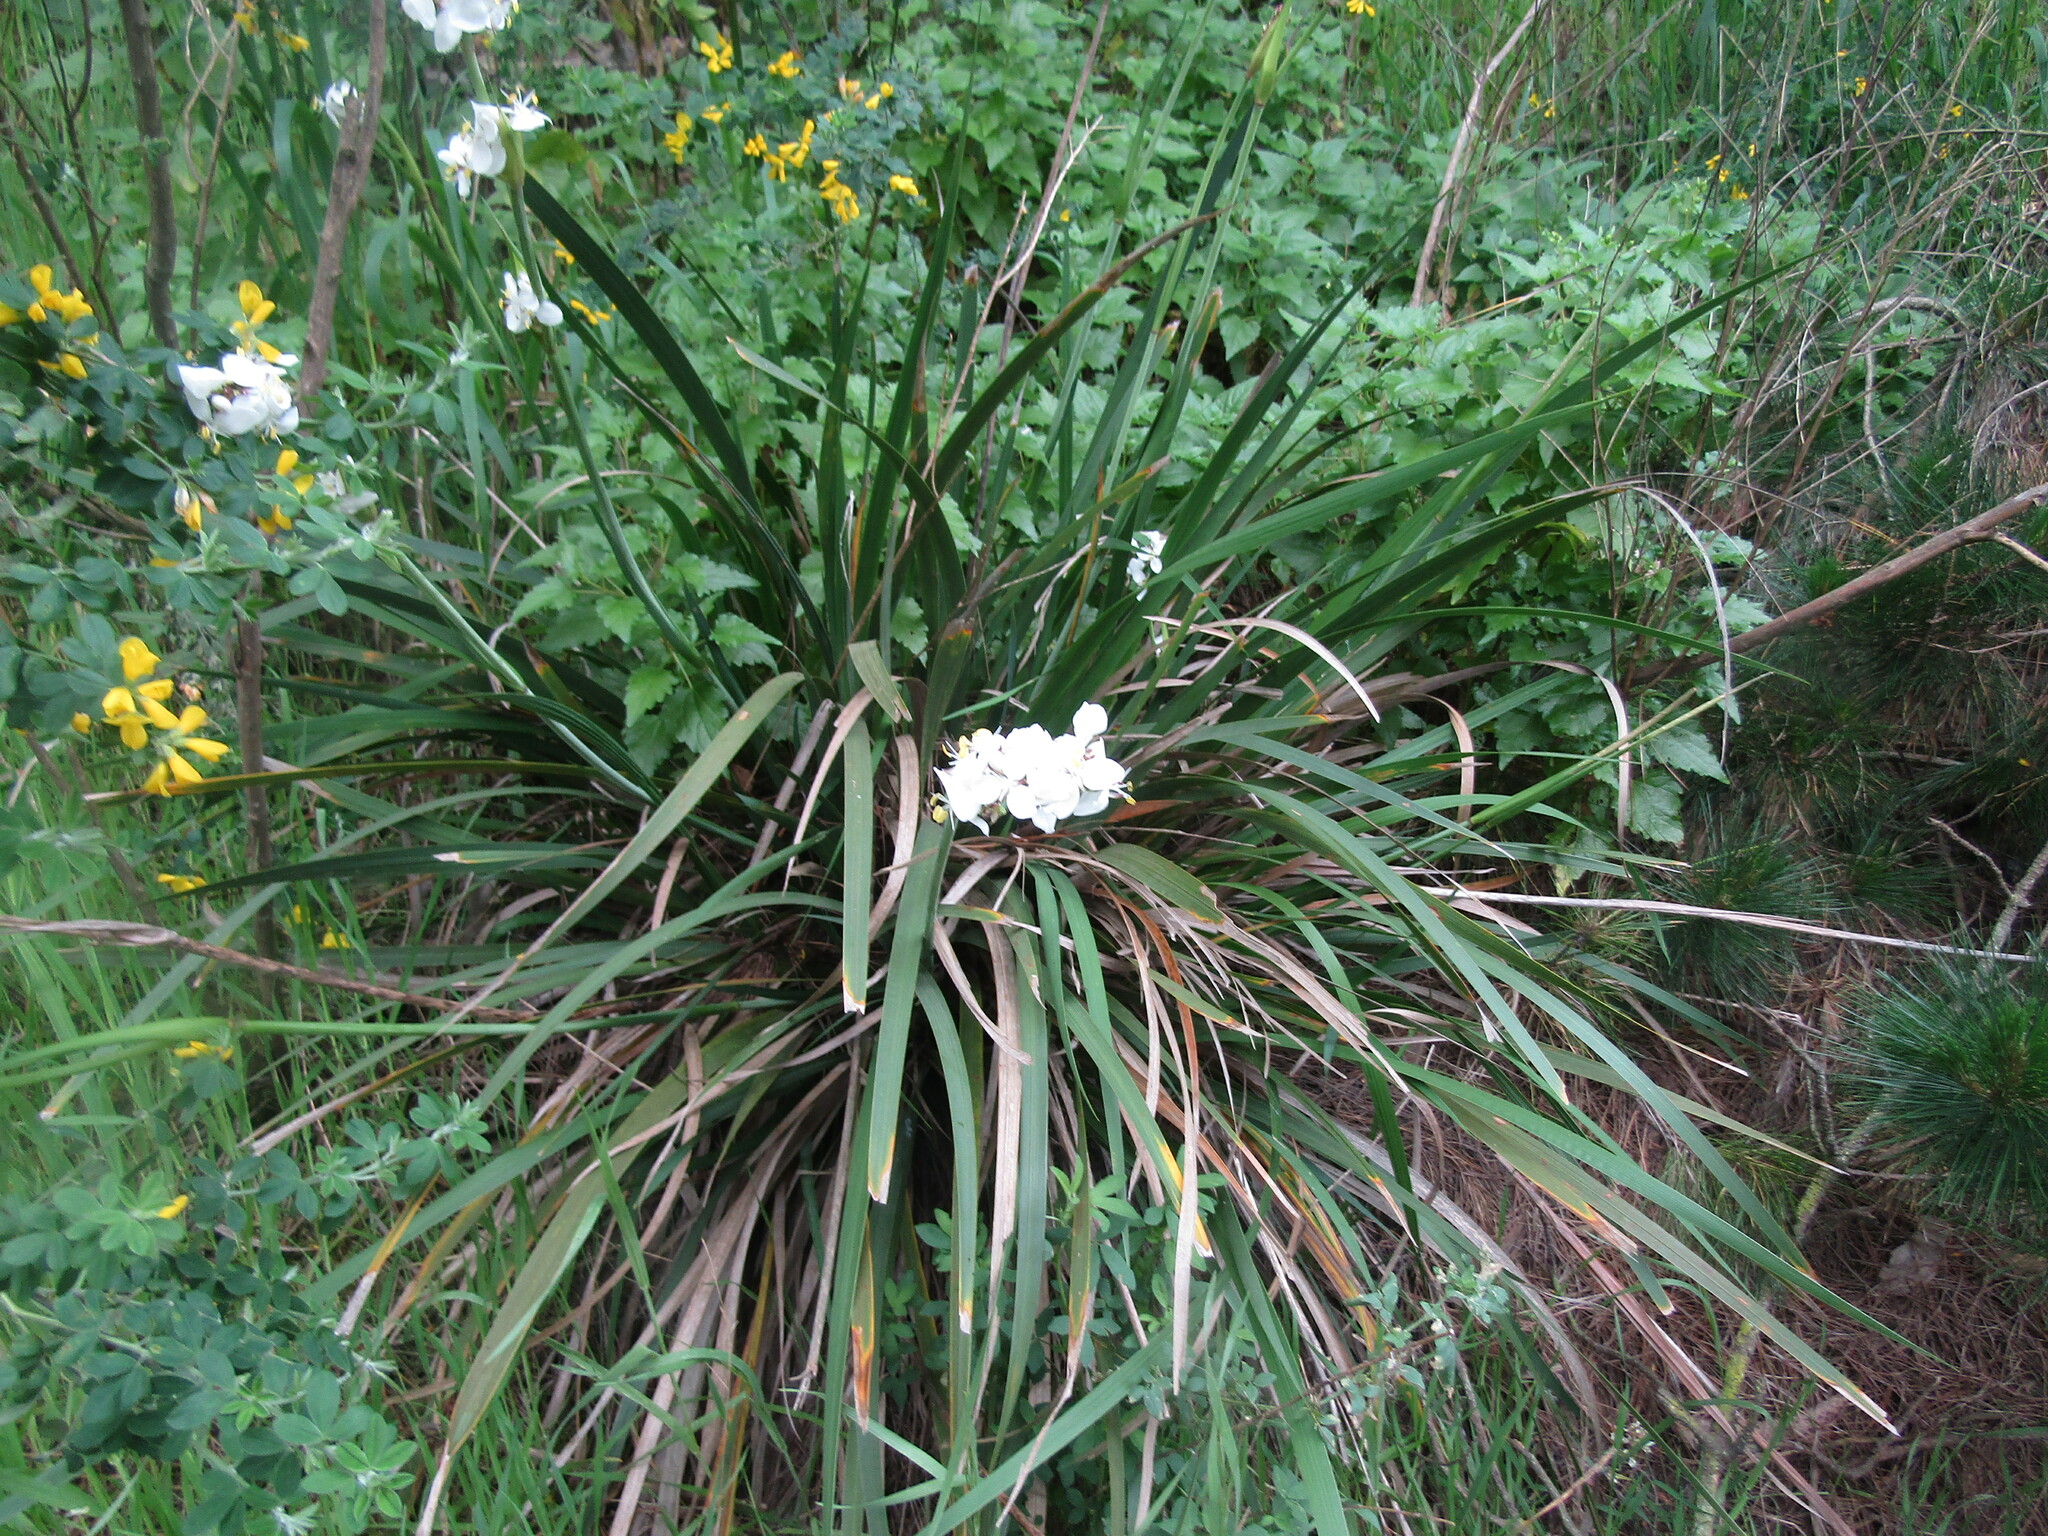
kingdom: Plantae
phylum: Tracheophyta
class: Liliopsida
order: Asparagales
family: Iridaceae
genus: Libertia
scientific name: Libertia chilensis
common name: Satin flower
